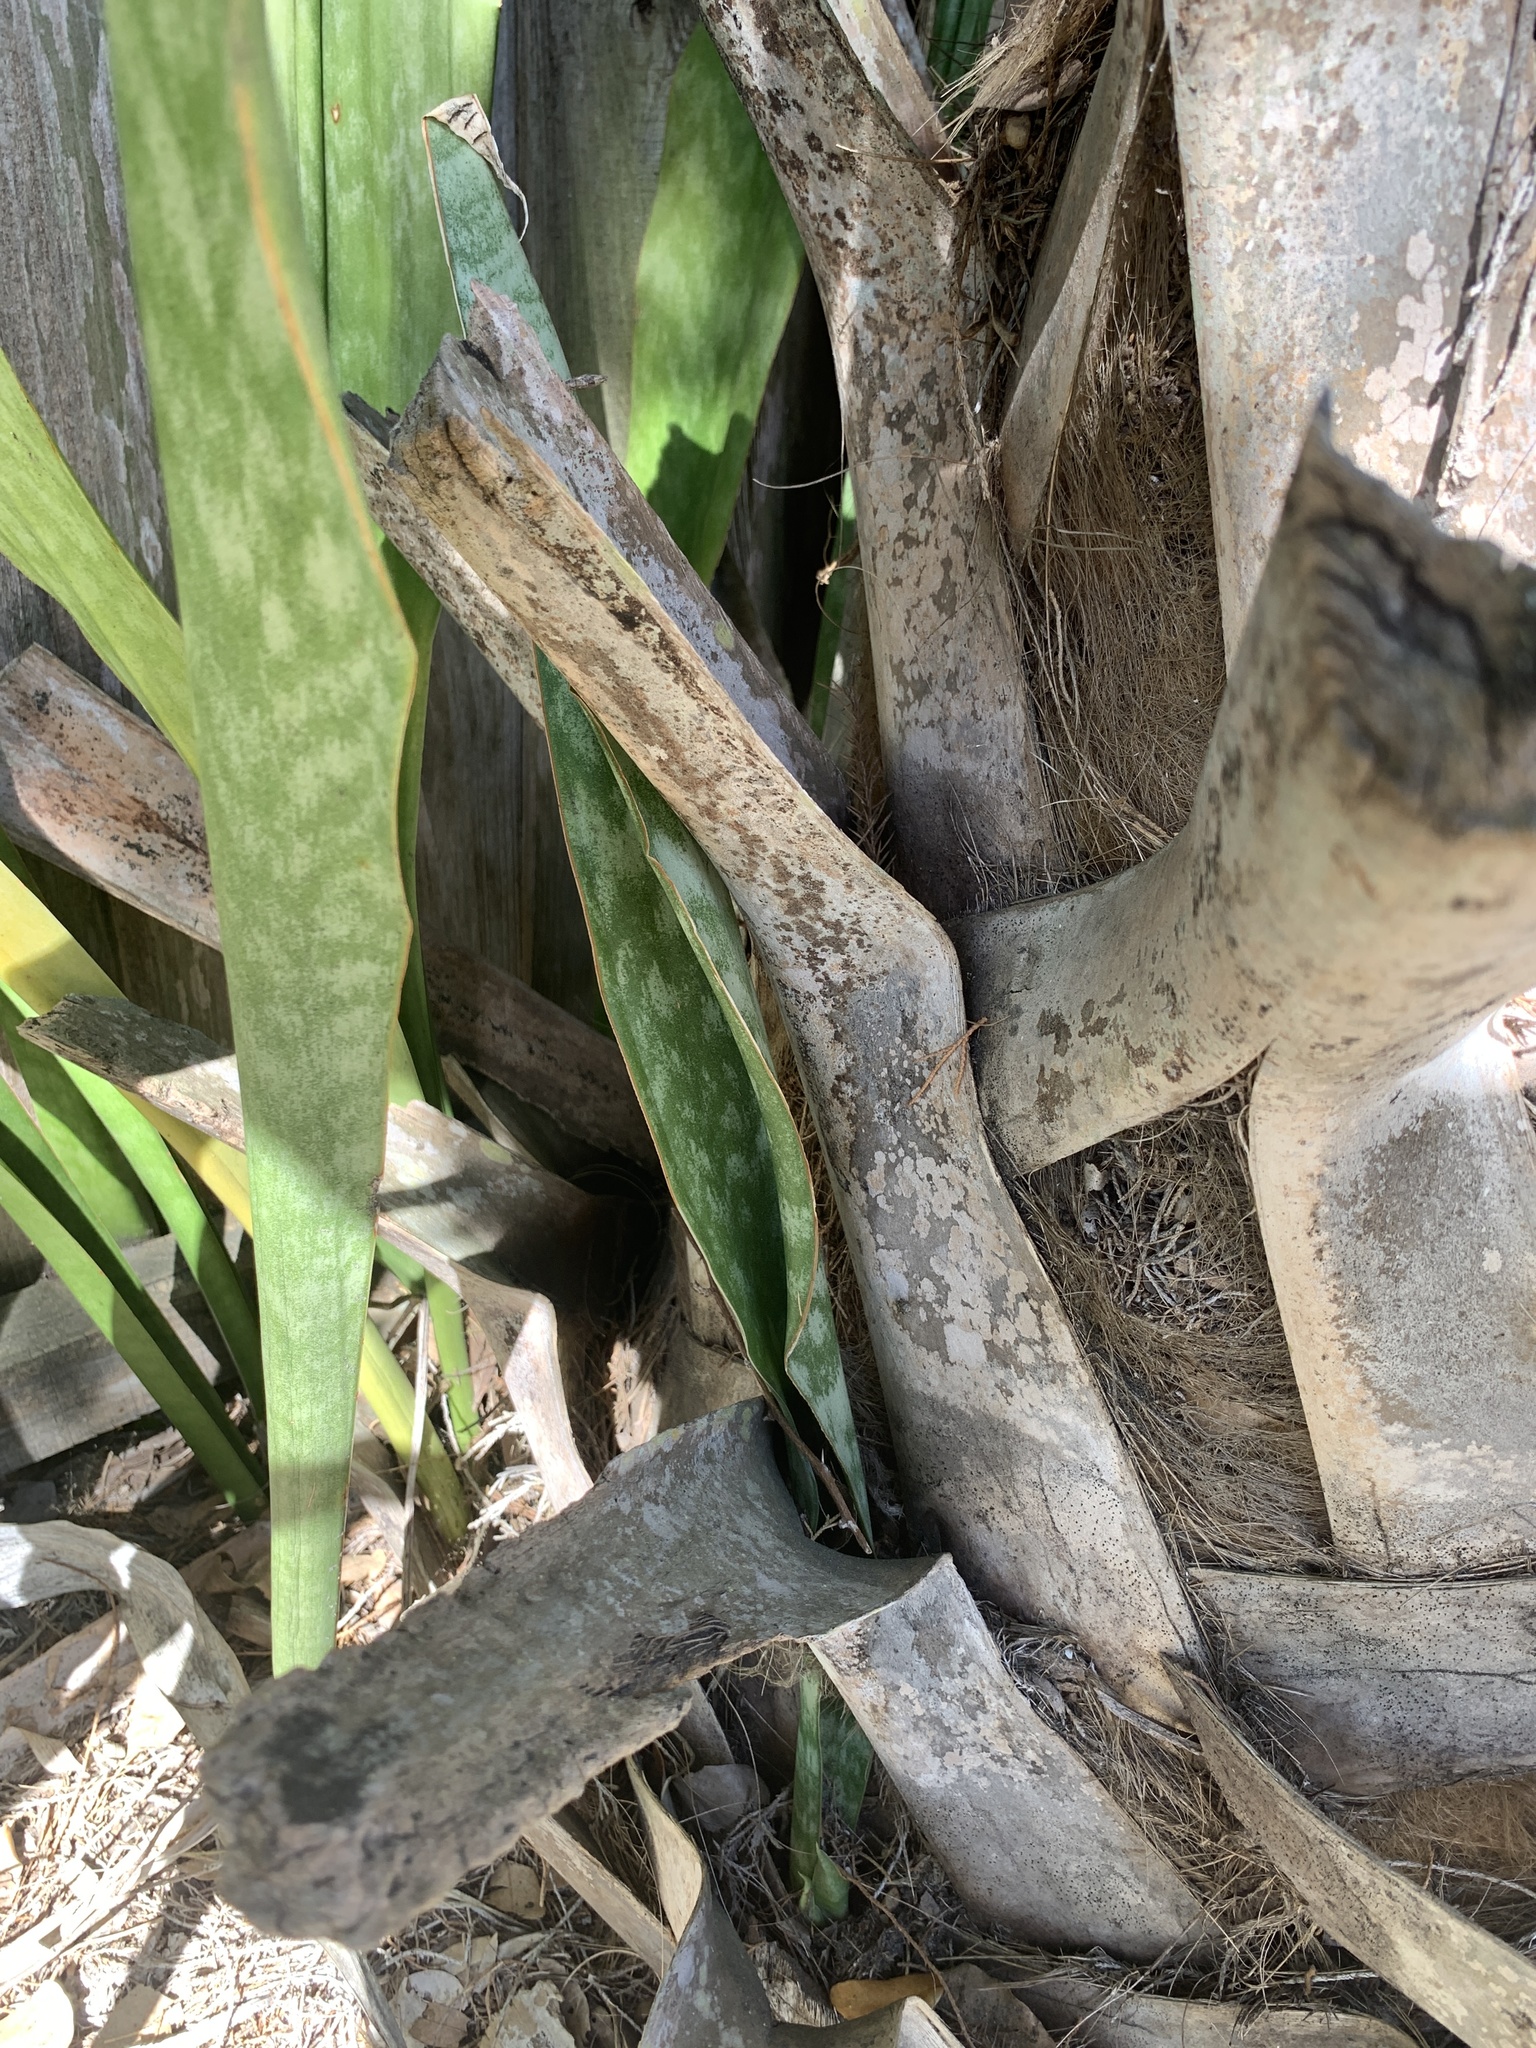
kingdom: Plantae
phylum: Tracheophyta
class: Liliopsida
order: Asparagales
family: Asparagaceae
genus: Dracaena
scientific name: Dracaena hyacinthoides
